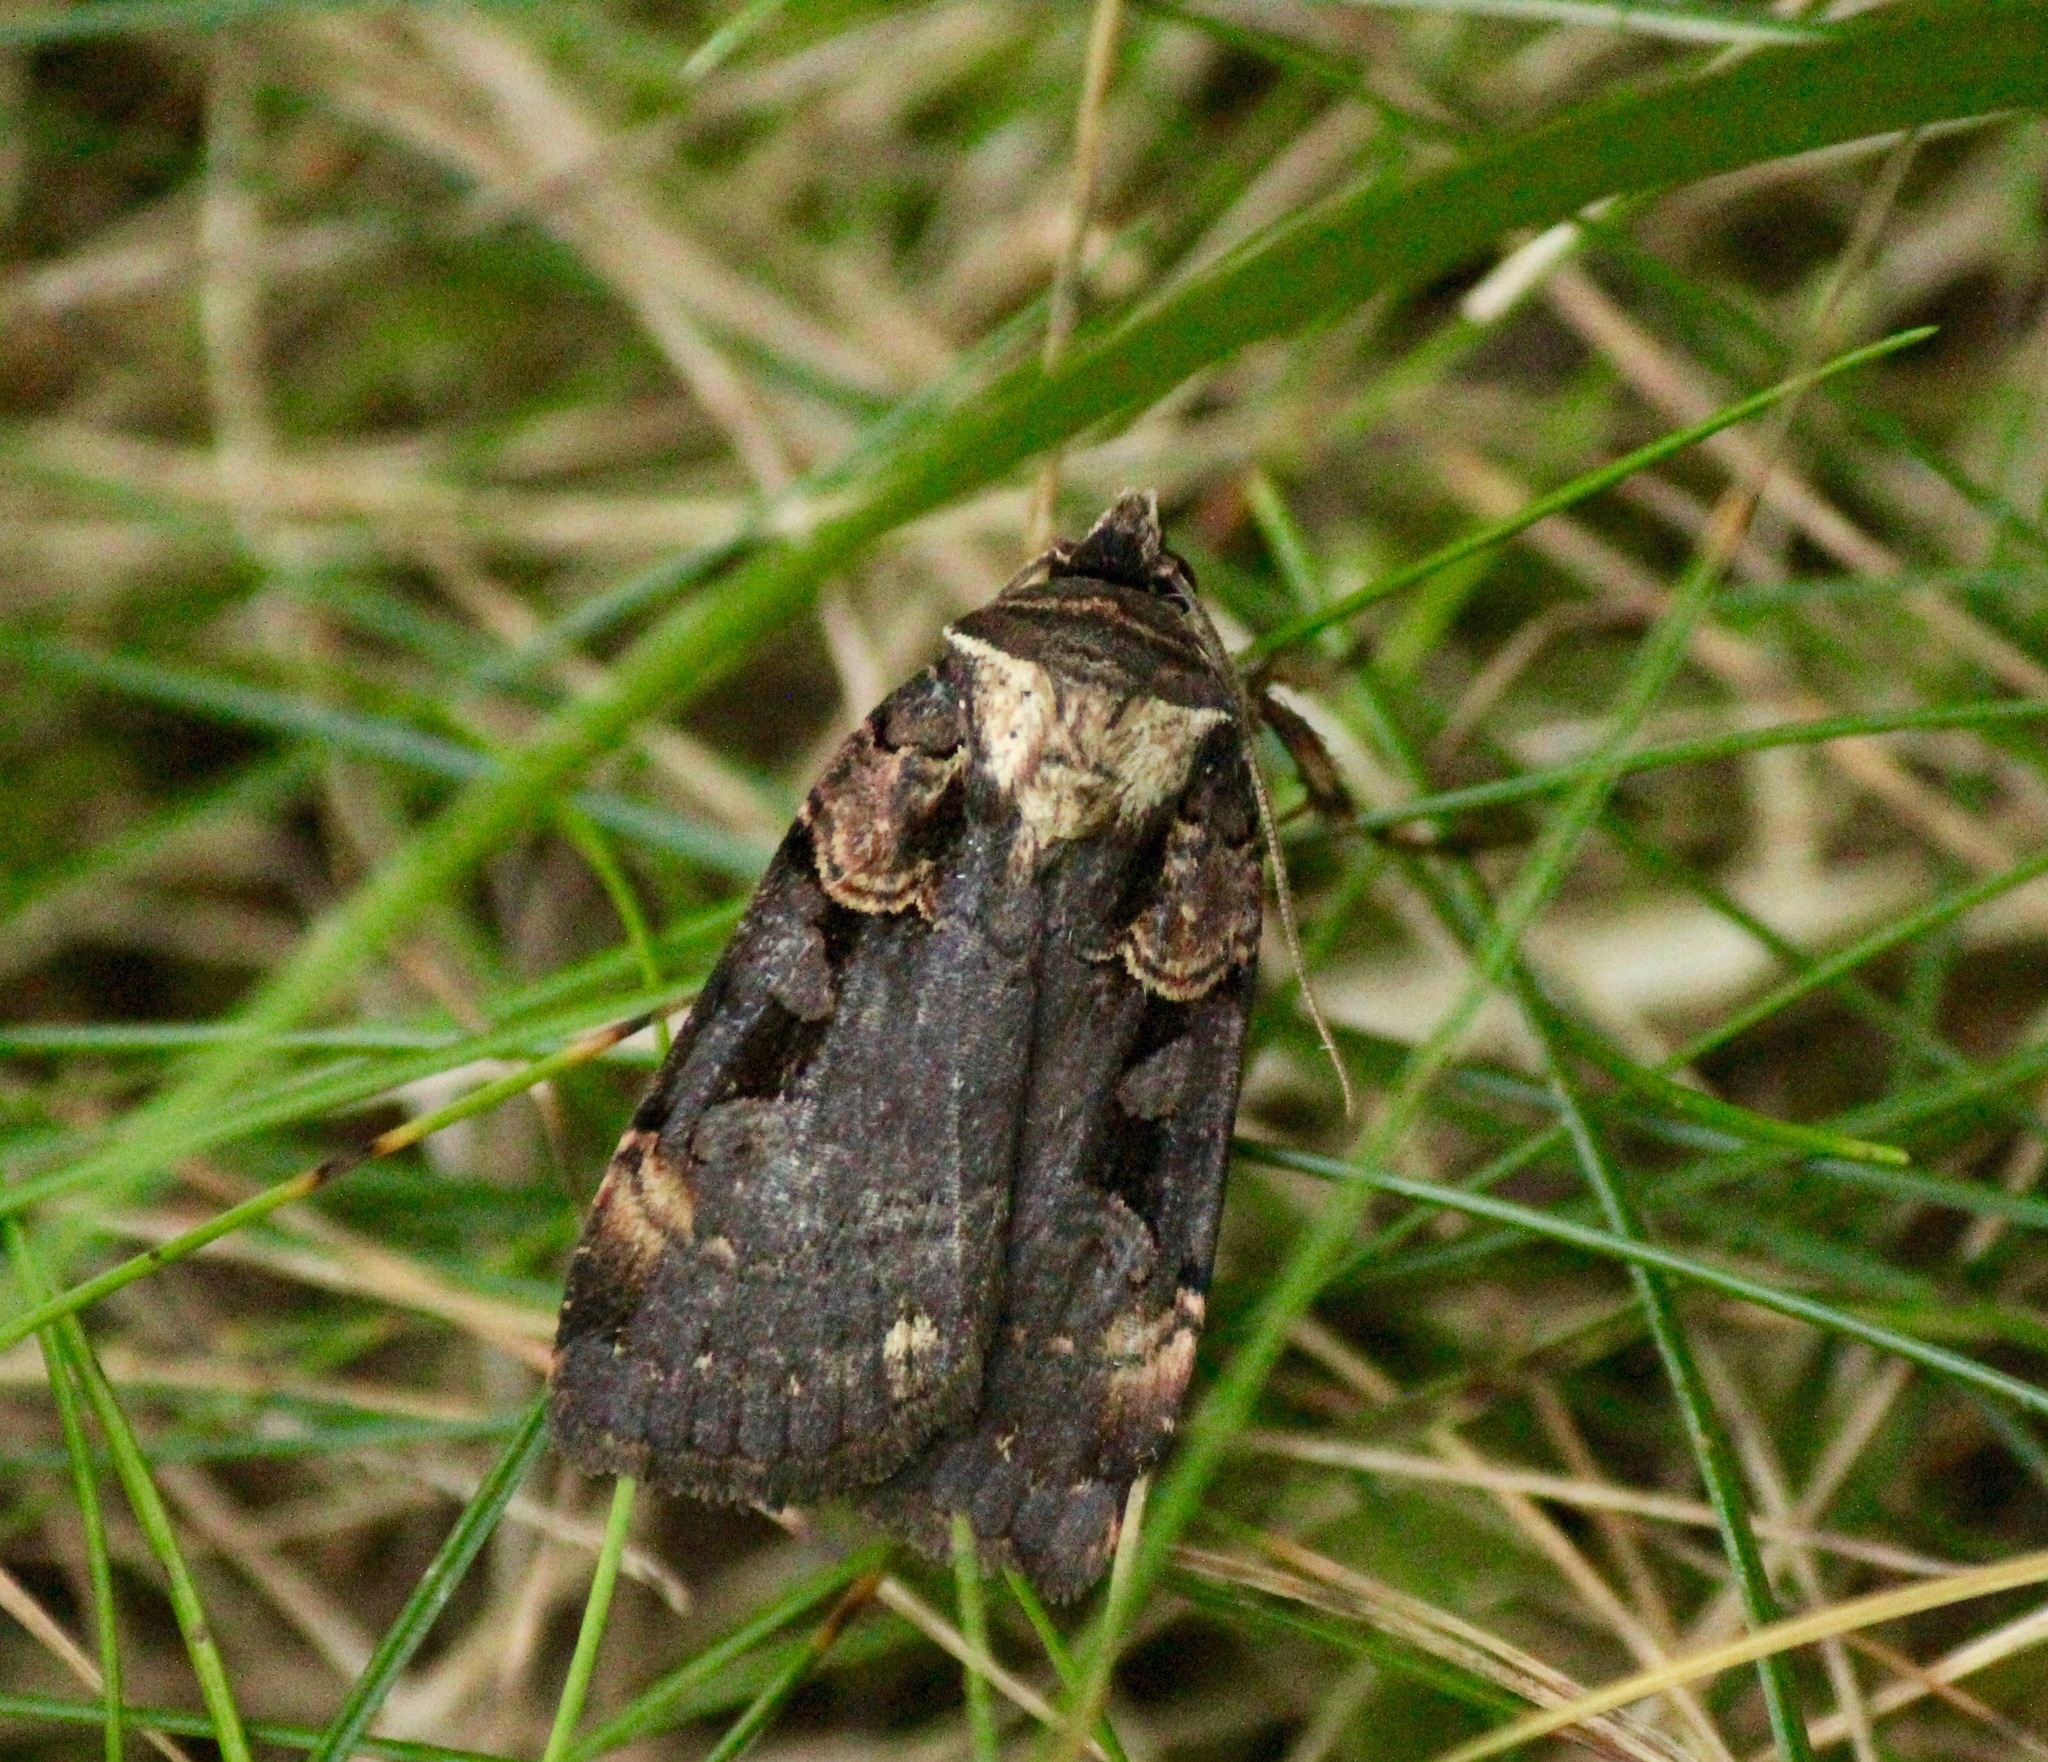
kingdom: Animalia
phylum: Arthropoda
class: Insecta
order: Lepidoptera
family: Noctuidae
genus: Pseudohermonassa
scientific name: Pseudohermonassa bicarnea
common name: Pink spotted dart
